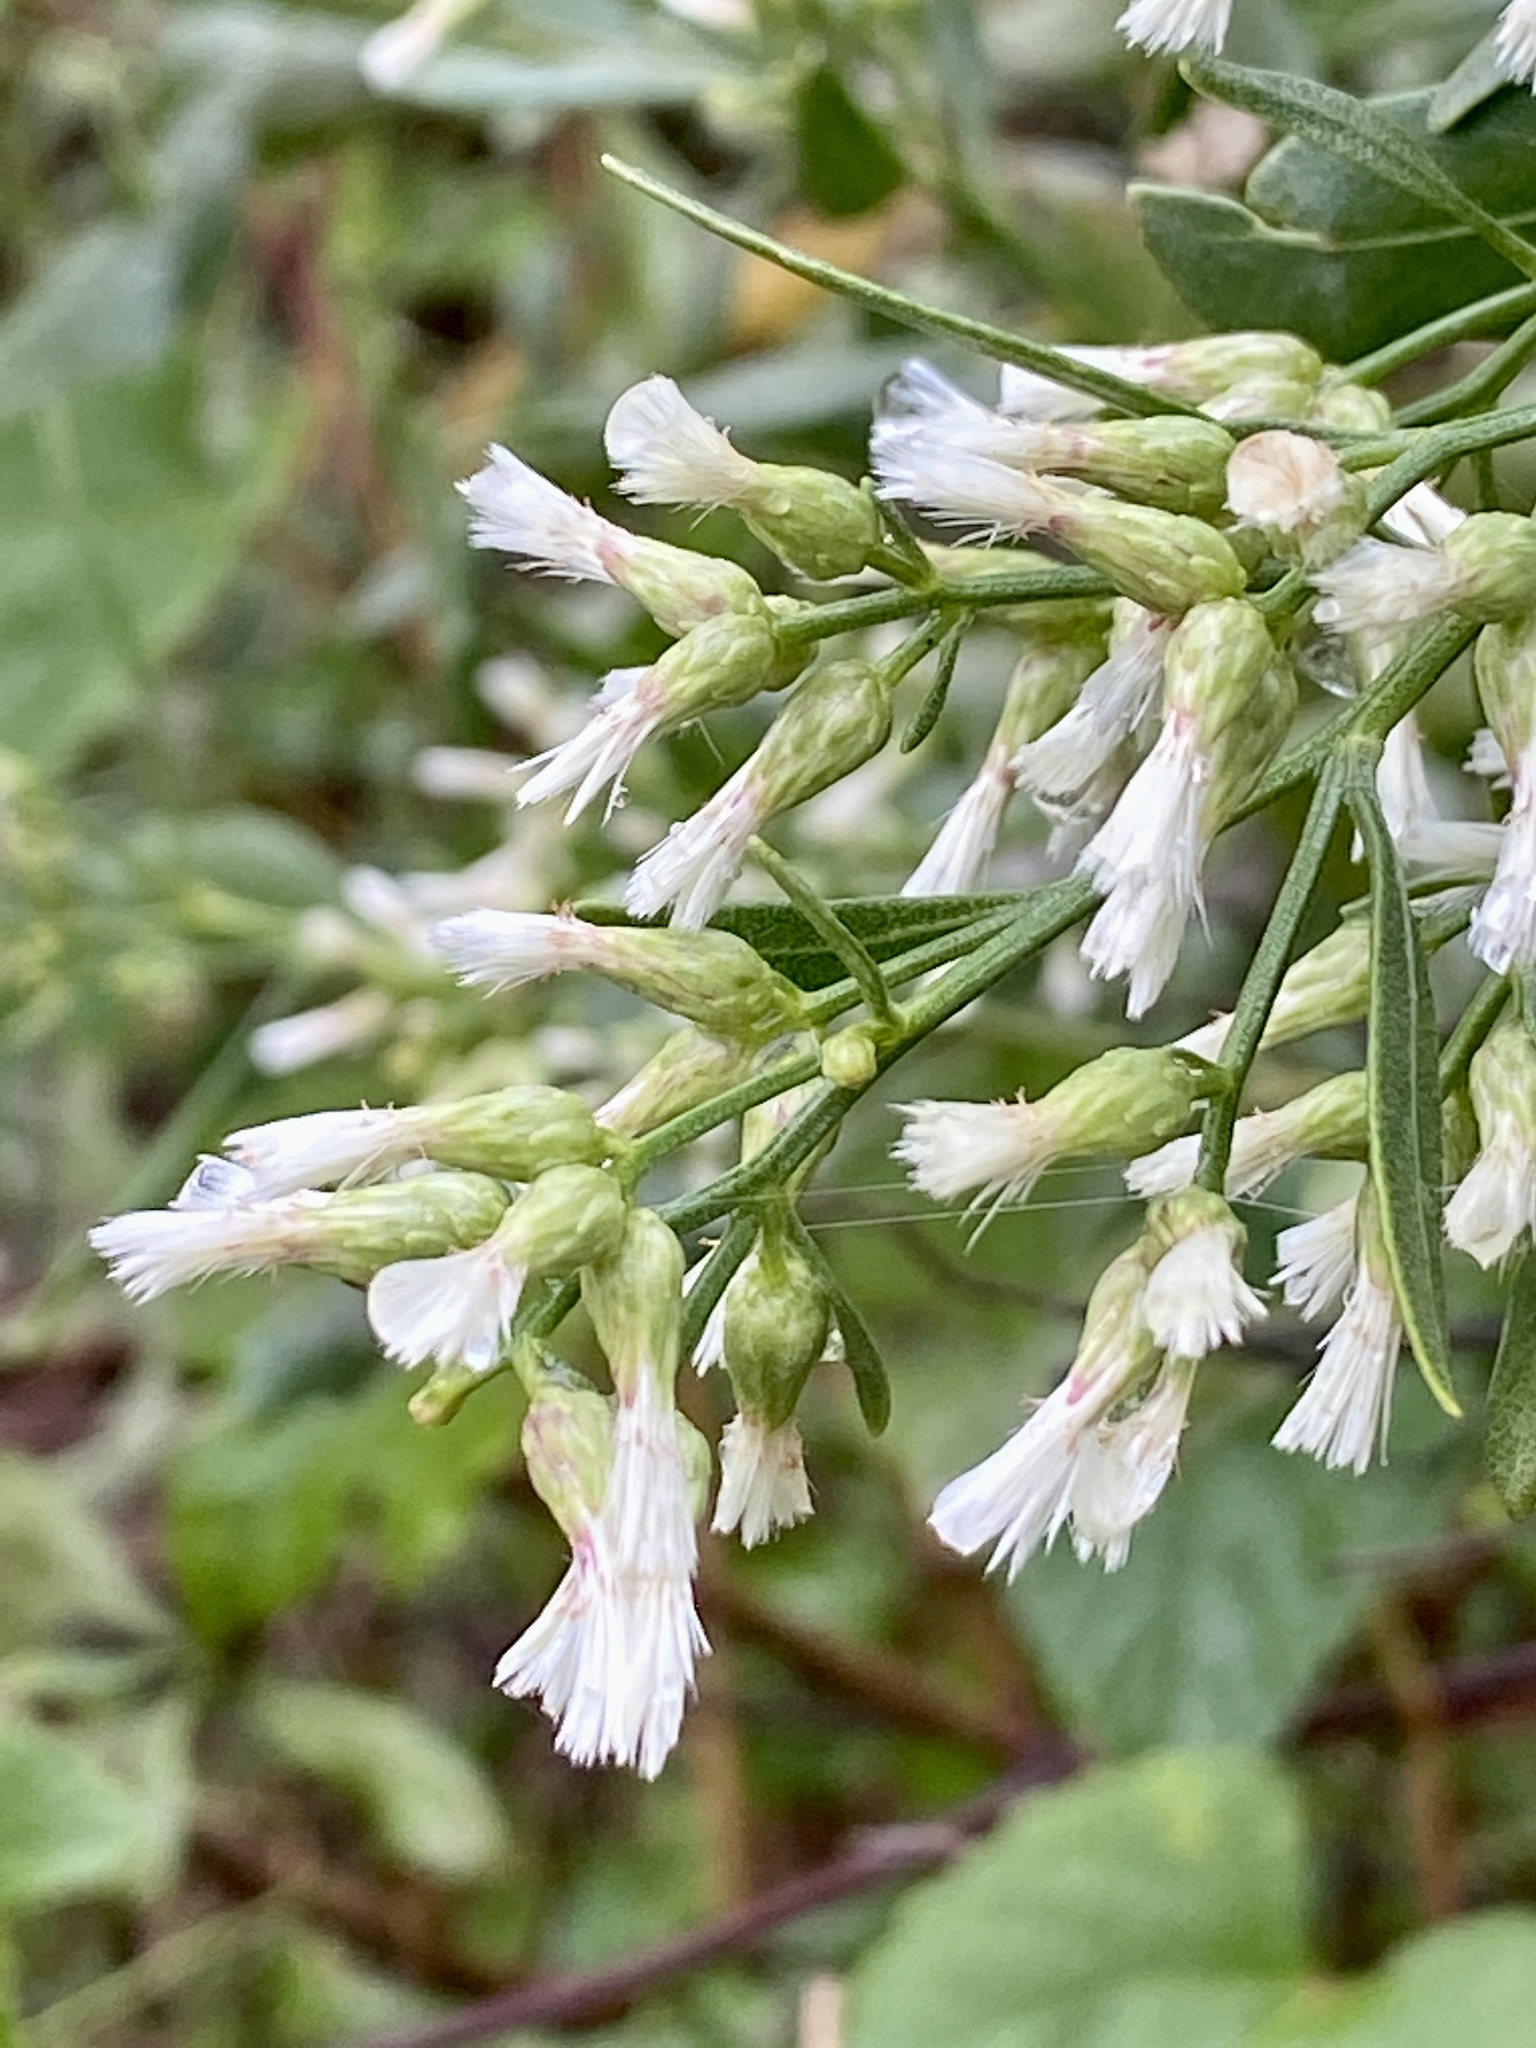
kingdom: Plantae
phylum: Tracheophyta
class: Magnoliopsida
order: Asterales
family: Asteraceae
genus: Baccharis
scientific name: Baccharis halimifolia
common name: Eastern baccharis
